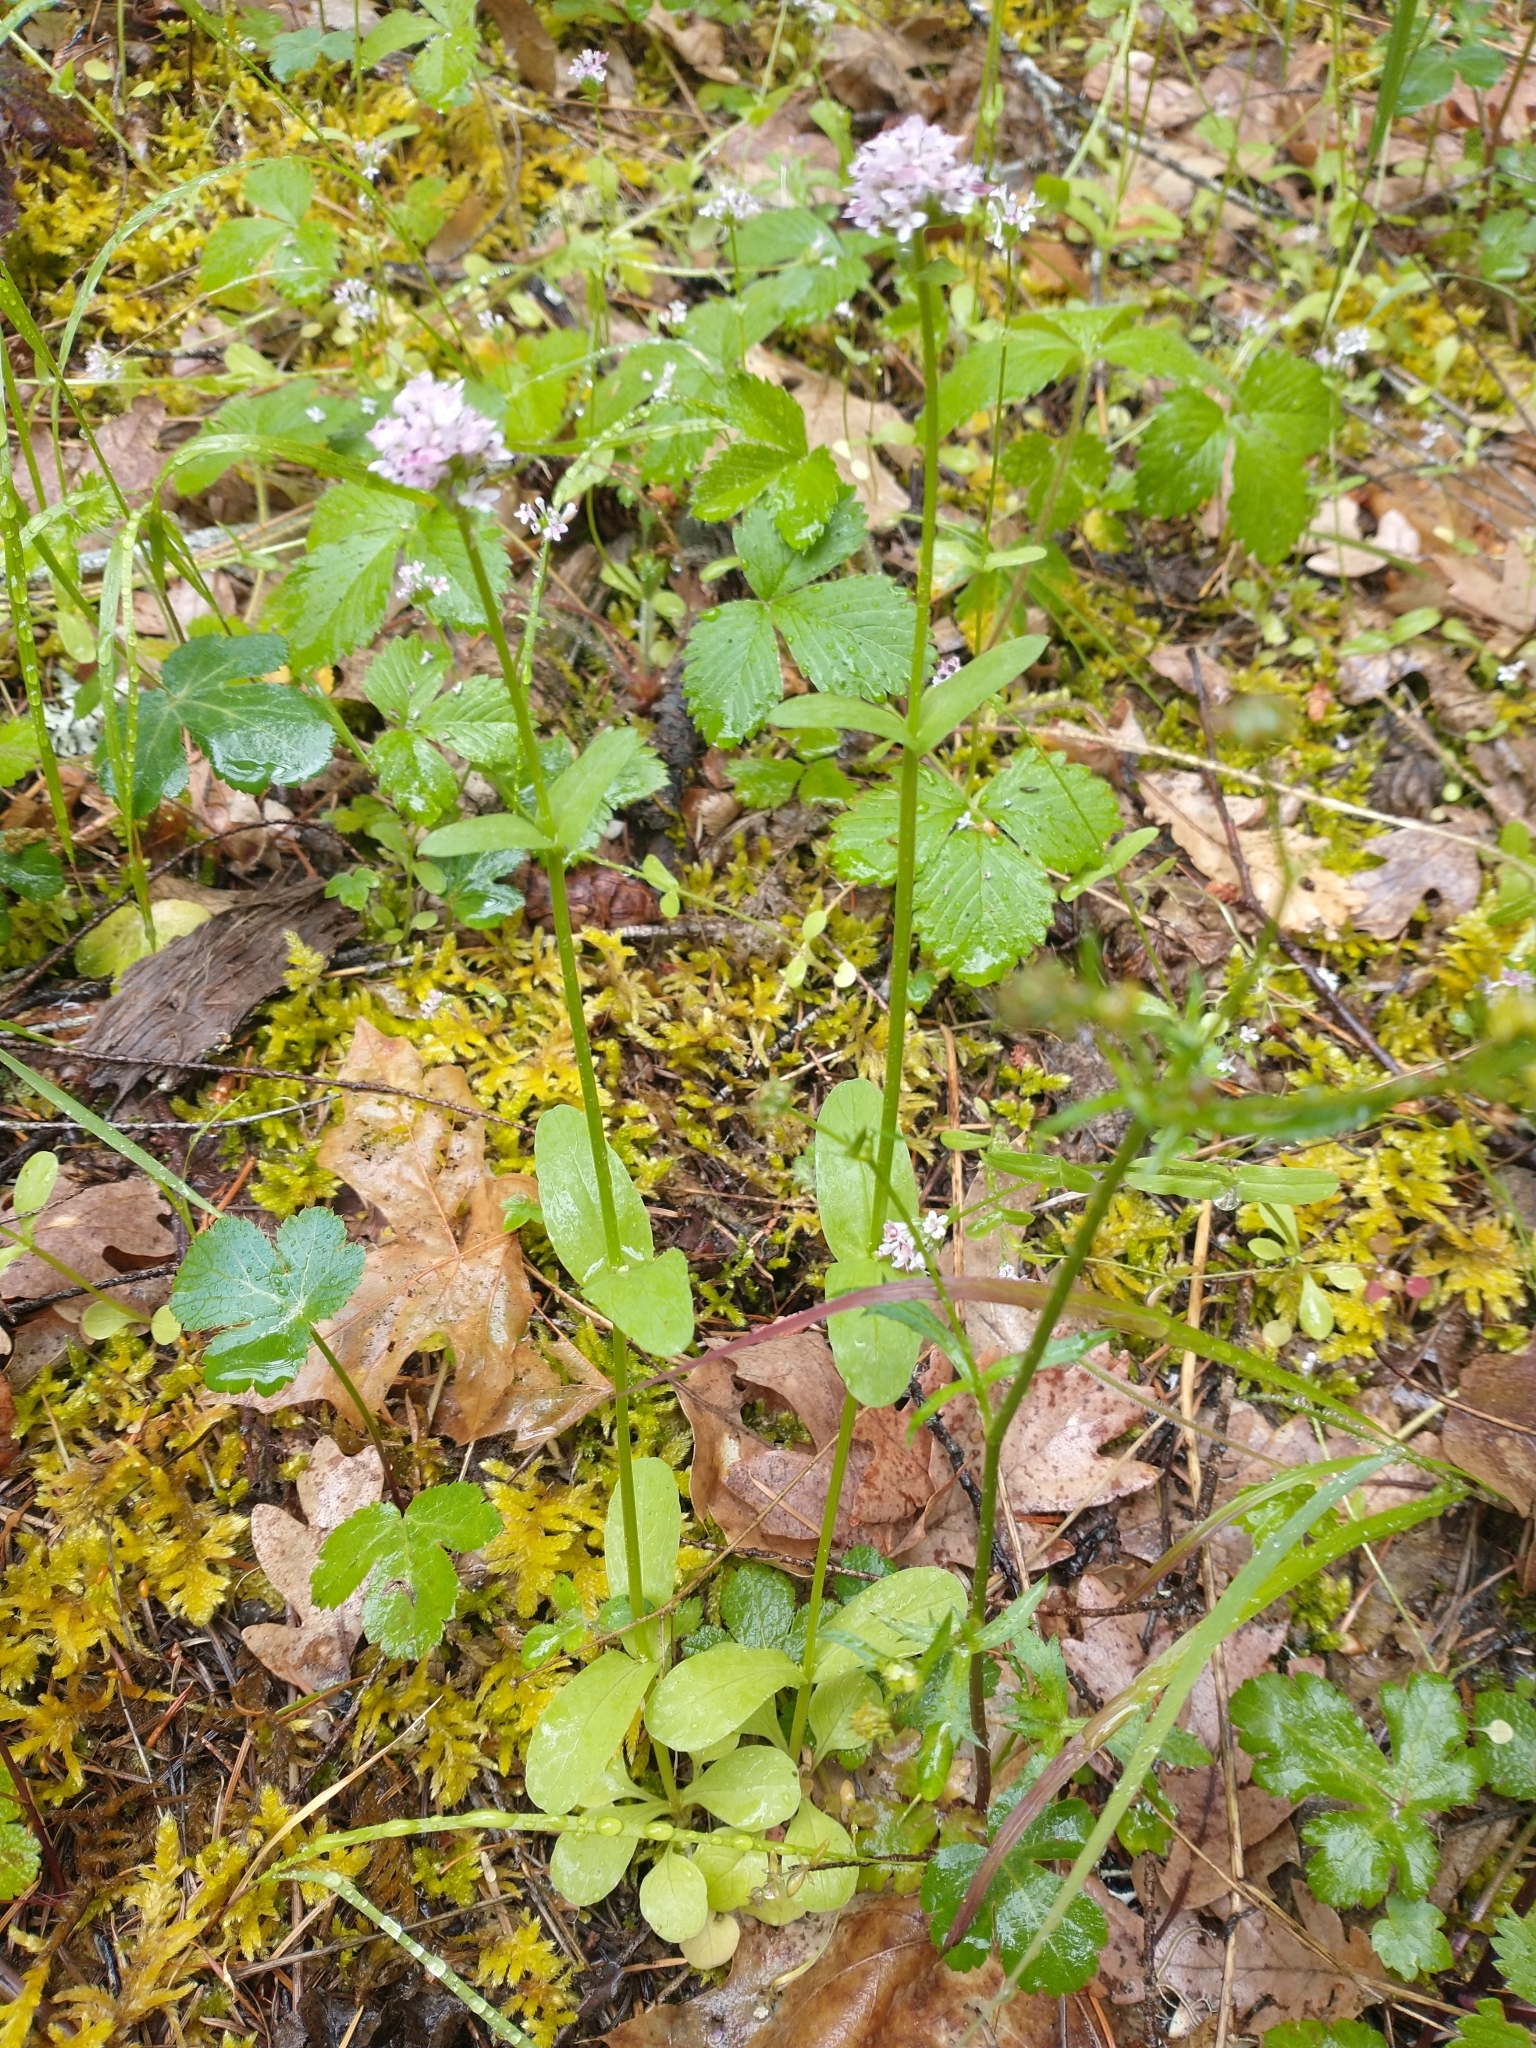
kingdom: Plantae
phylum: Tracheophyta
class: Magnoliopsida
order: Dipsacales
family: Caprifoliaceae
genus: Plectritis
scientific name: Plectritis congesta
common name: Pink plectritis
